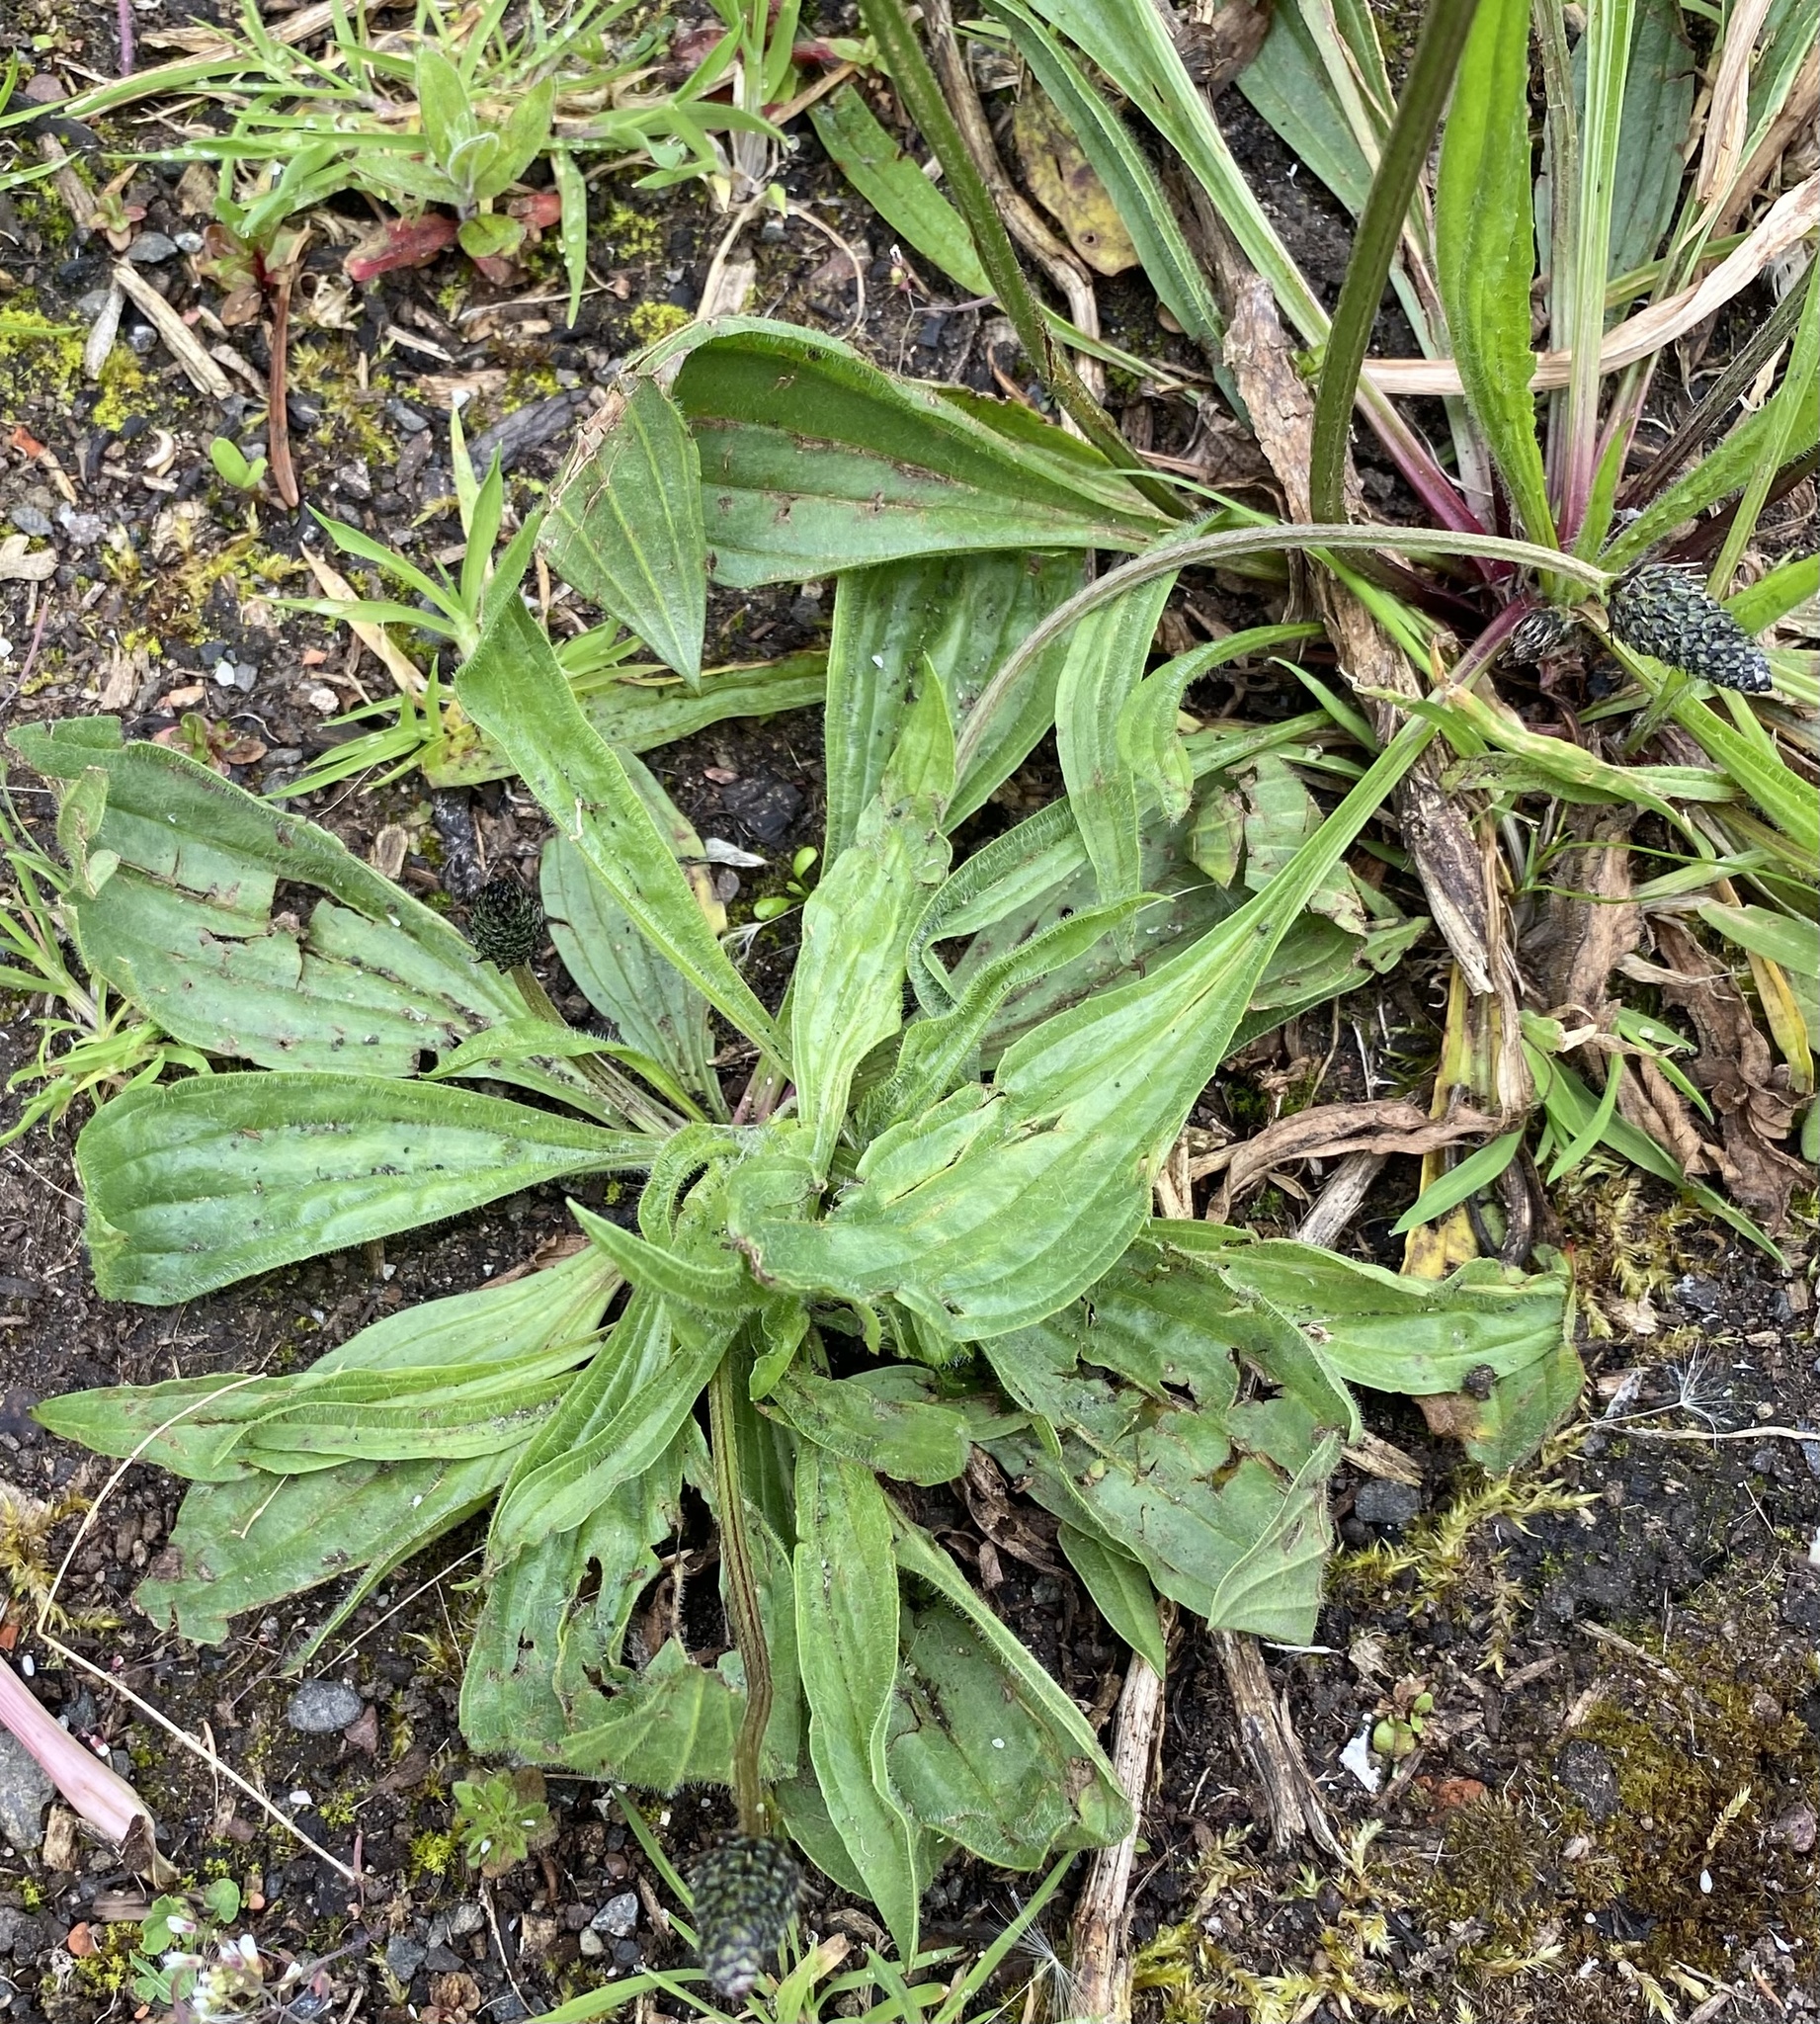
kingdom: Plantae
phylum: Tracheophyta
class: Magnoliopsida
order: Lamiales
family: Plantaginaceae
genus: Plantago
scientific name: Plantago lanceolata
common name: Ribwort plantain
